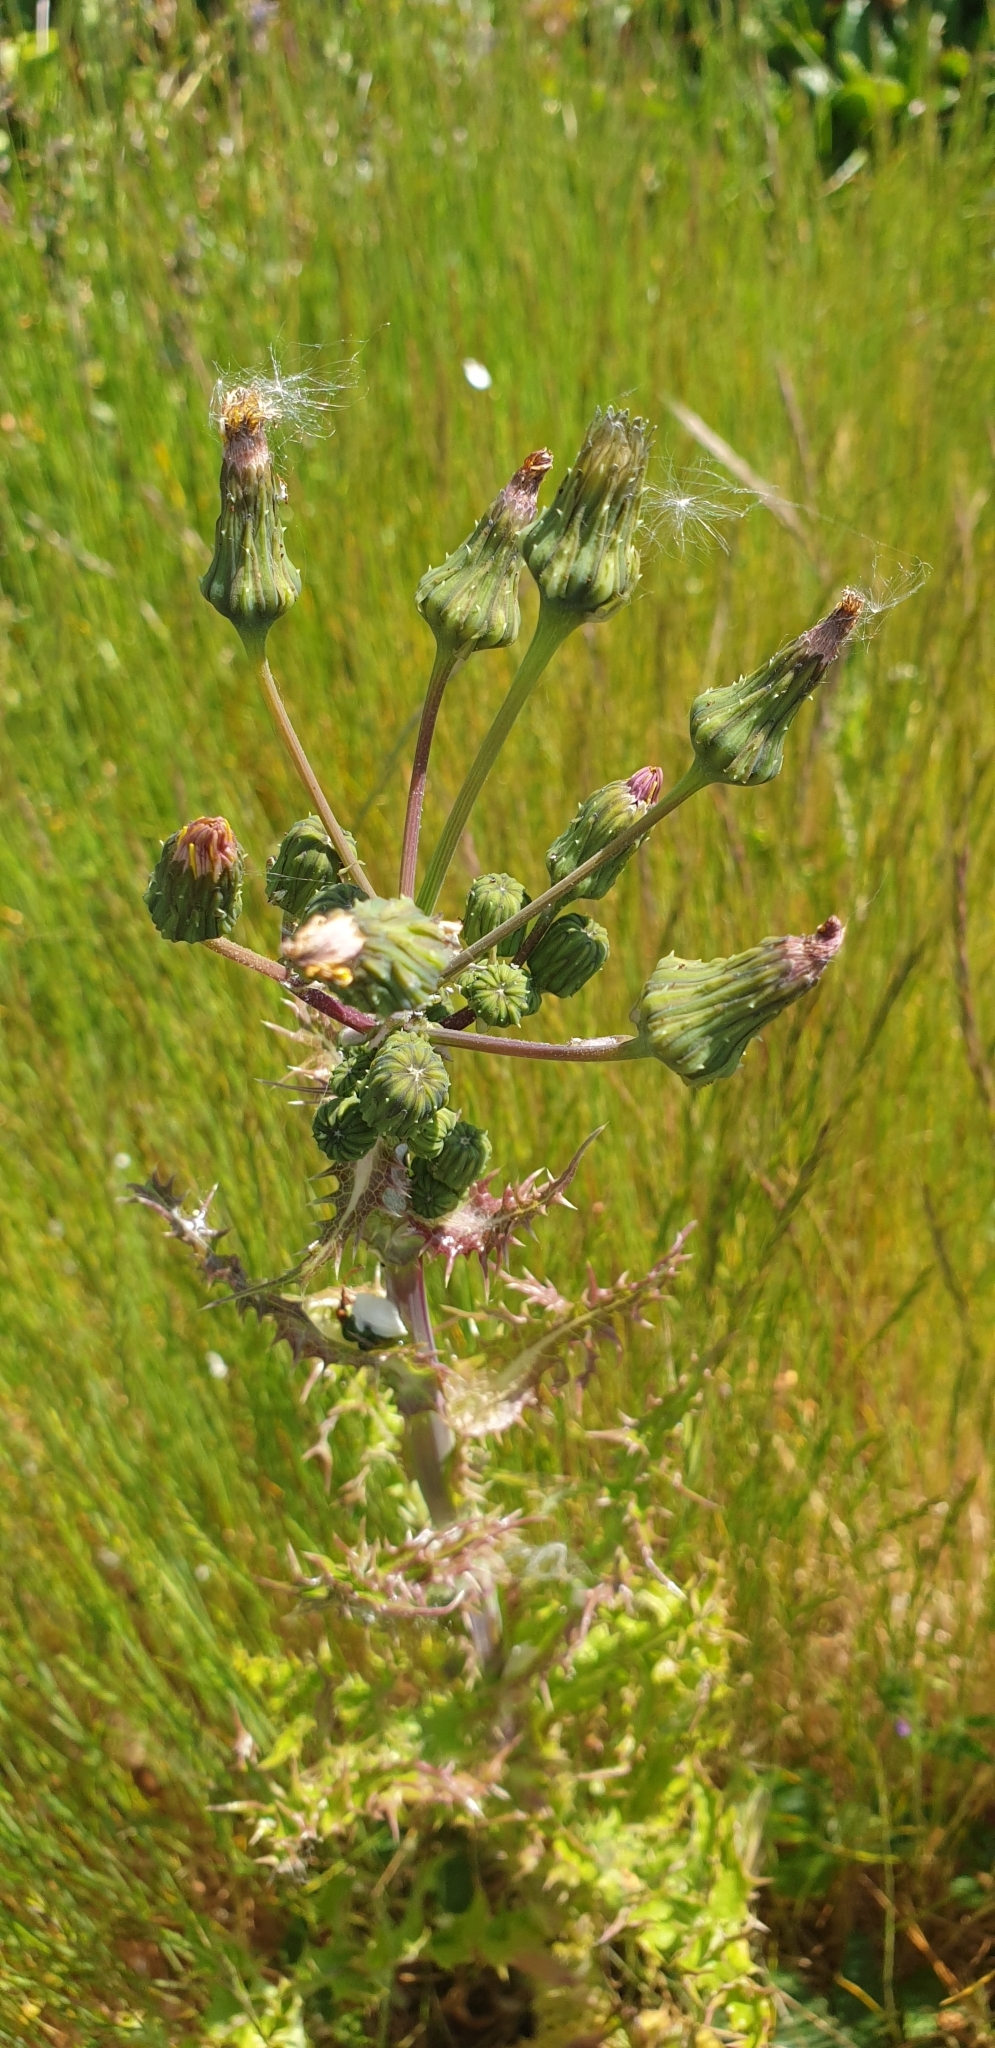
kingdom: Plantae
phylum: Tracheophyta
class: Magnoliopsida
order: Asterales
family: Asteraceae
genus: Sonchus
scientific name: Sonchus asper
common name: Prickly sow-thistle
